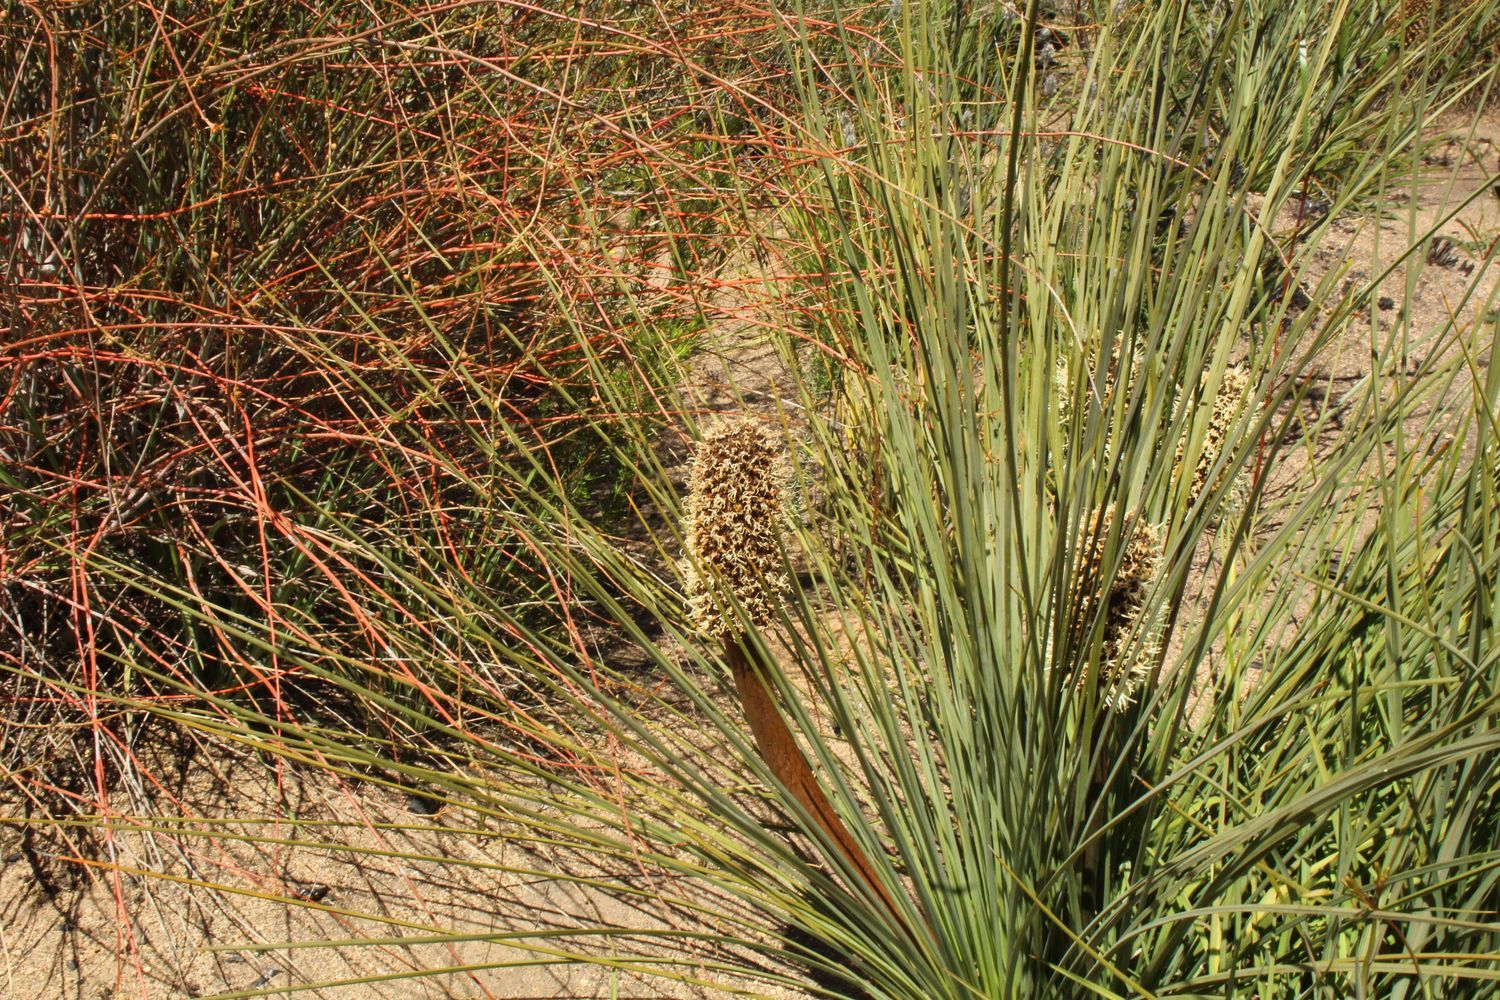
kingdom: Plantae
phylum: Tracheophyta
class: Liliopsida
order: Asparagales
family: Asphodelaceae
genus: Xanthorrhoea
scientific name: Xanthorrhoea nana
